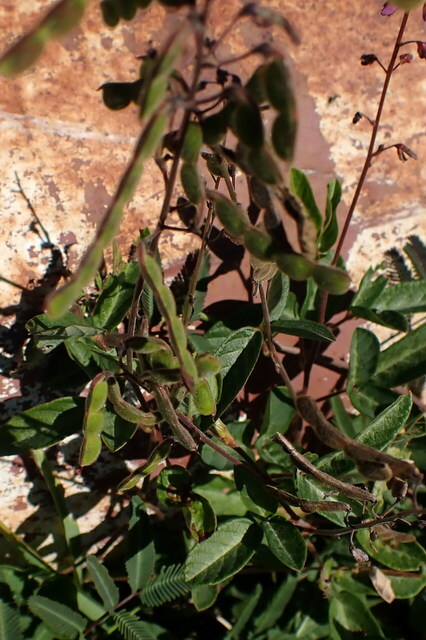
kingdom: Plantae
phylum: Tracheophyta
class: Magnoliopsida
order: Fabales
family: Fabaceae
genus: Desmodium
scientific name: Desmodium incanum
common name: Tickclover
